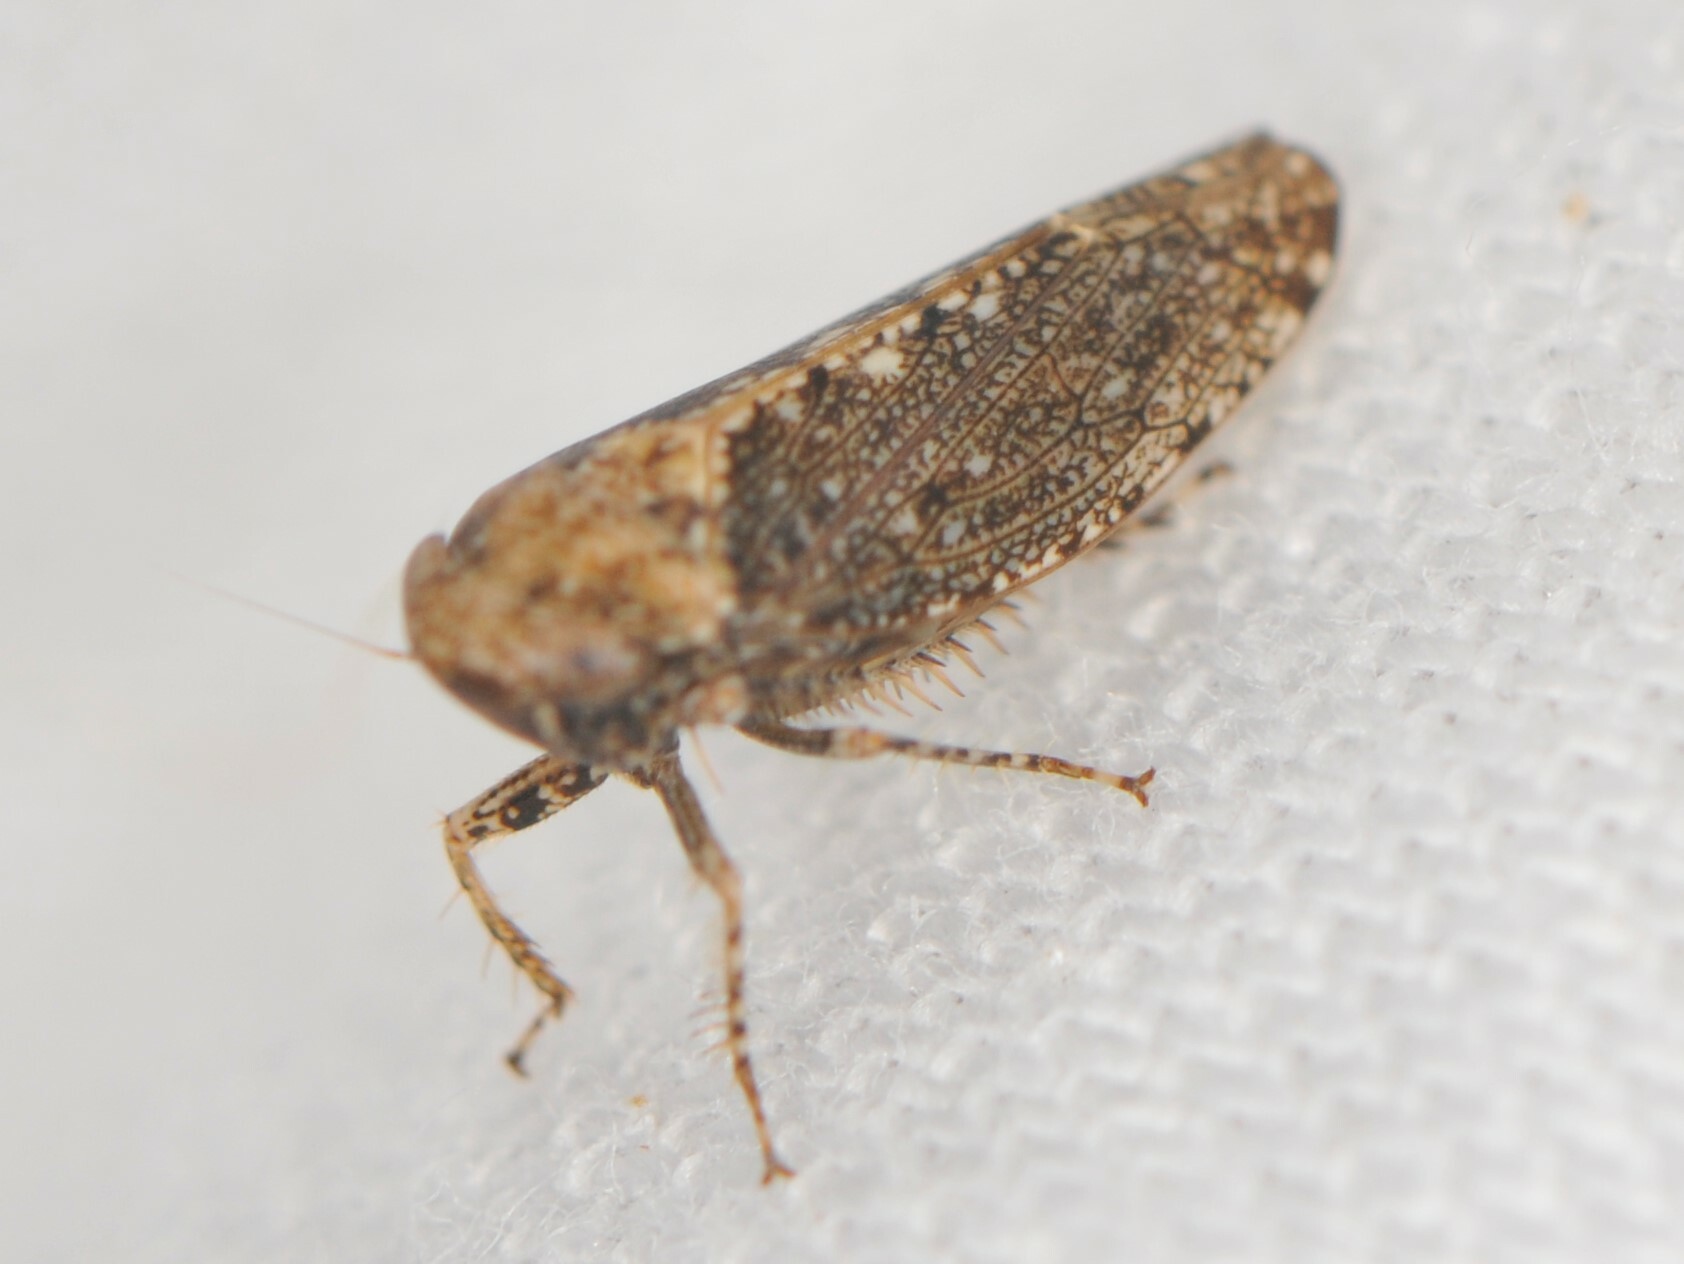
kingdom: Animalia
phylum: Arthropoda
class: Insecta
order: Hemiptera
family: Cicadellidae
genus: Excultanus
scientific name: Excultanus
